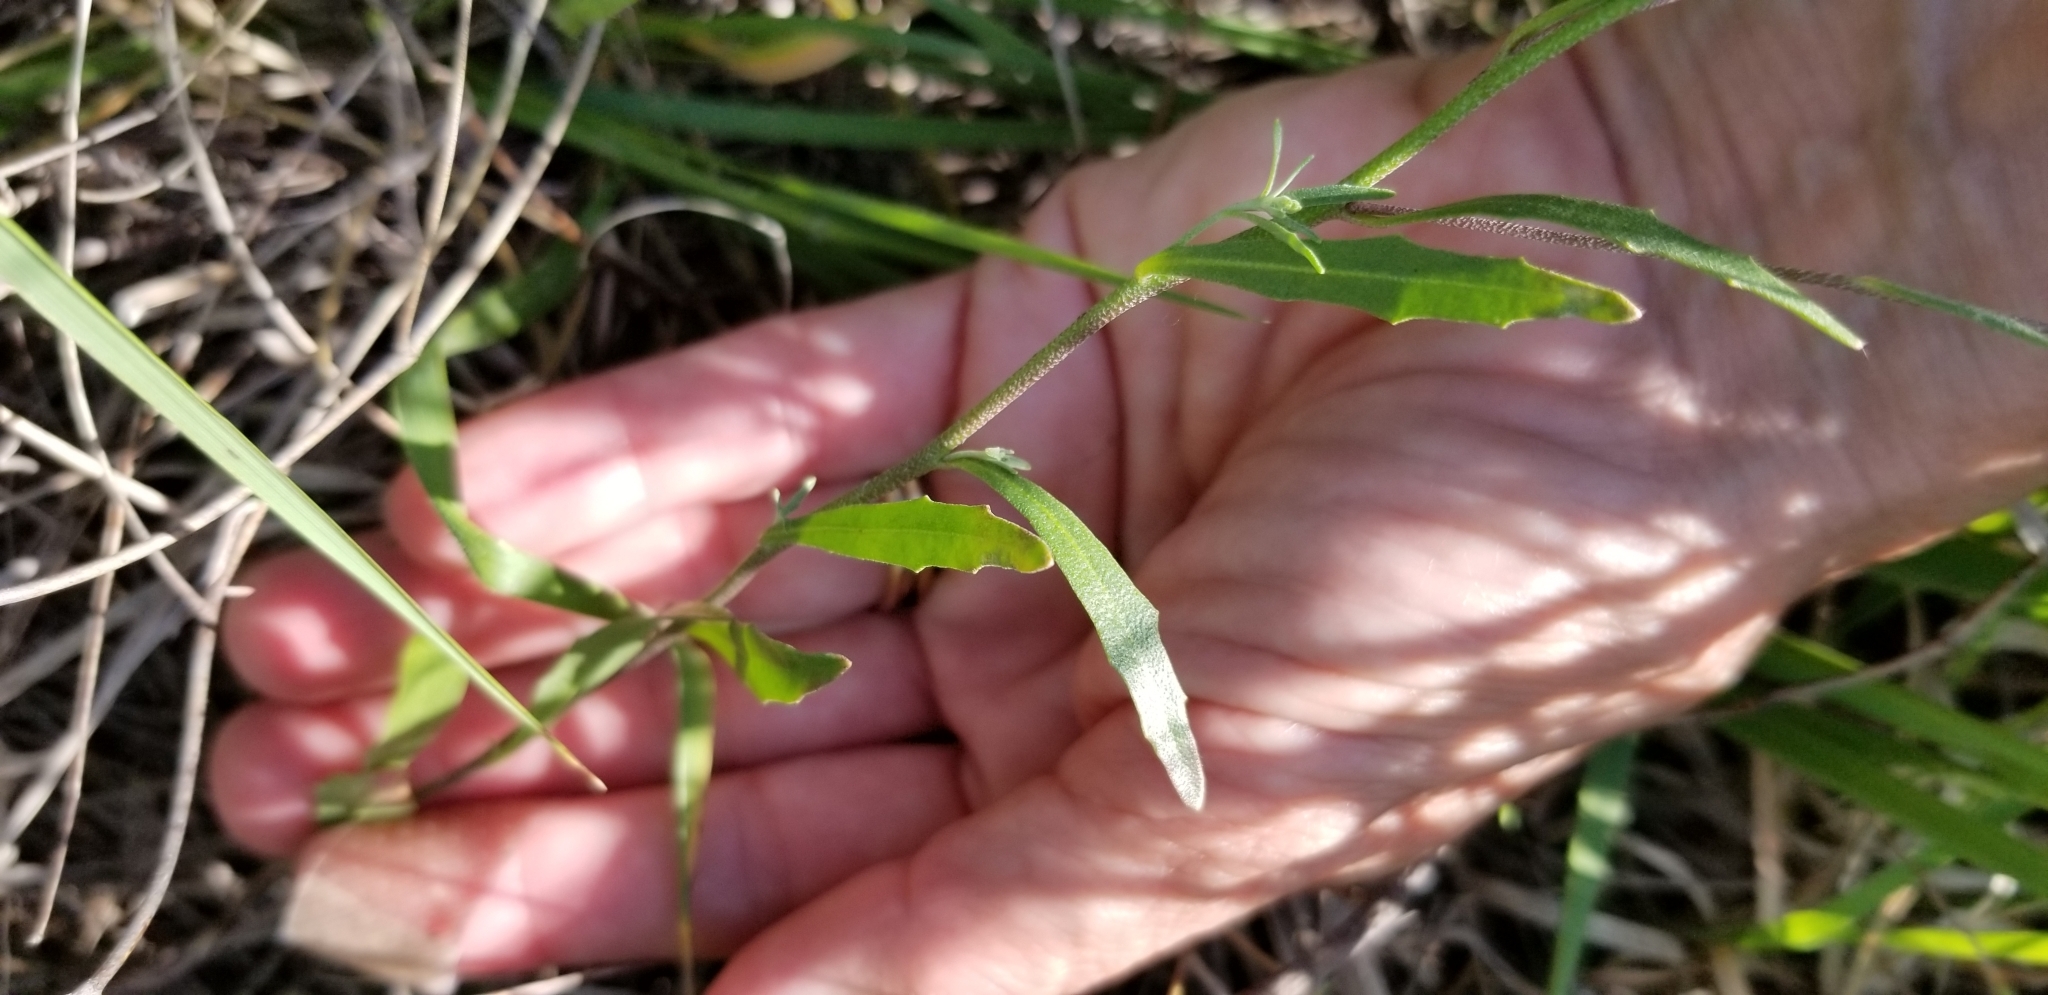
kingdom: Plantae
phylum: Tracheophyta
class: Magnoliopsida
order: Brassicales
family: Brassicaceae
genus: Physaria
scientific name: Physaria gracilis
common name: Spreading bladderpod
